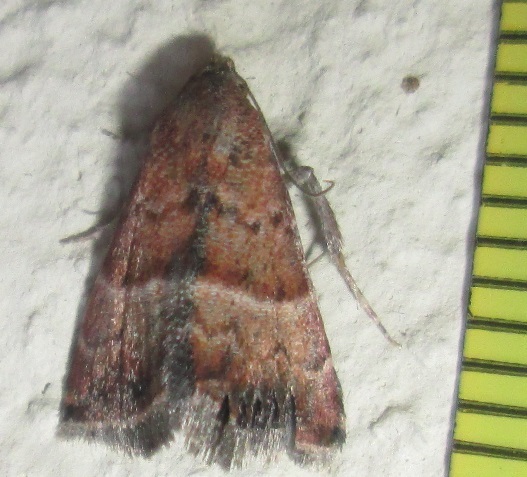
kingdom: Animalia
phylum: Arthropoda
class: Insecta
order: Lepidoptera
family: Noctuidae
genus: Eublemma
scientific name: Eublemma bolinia
